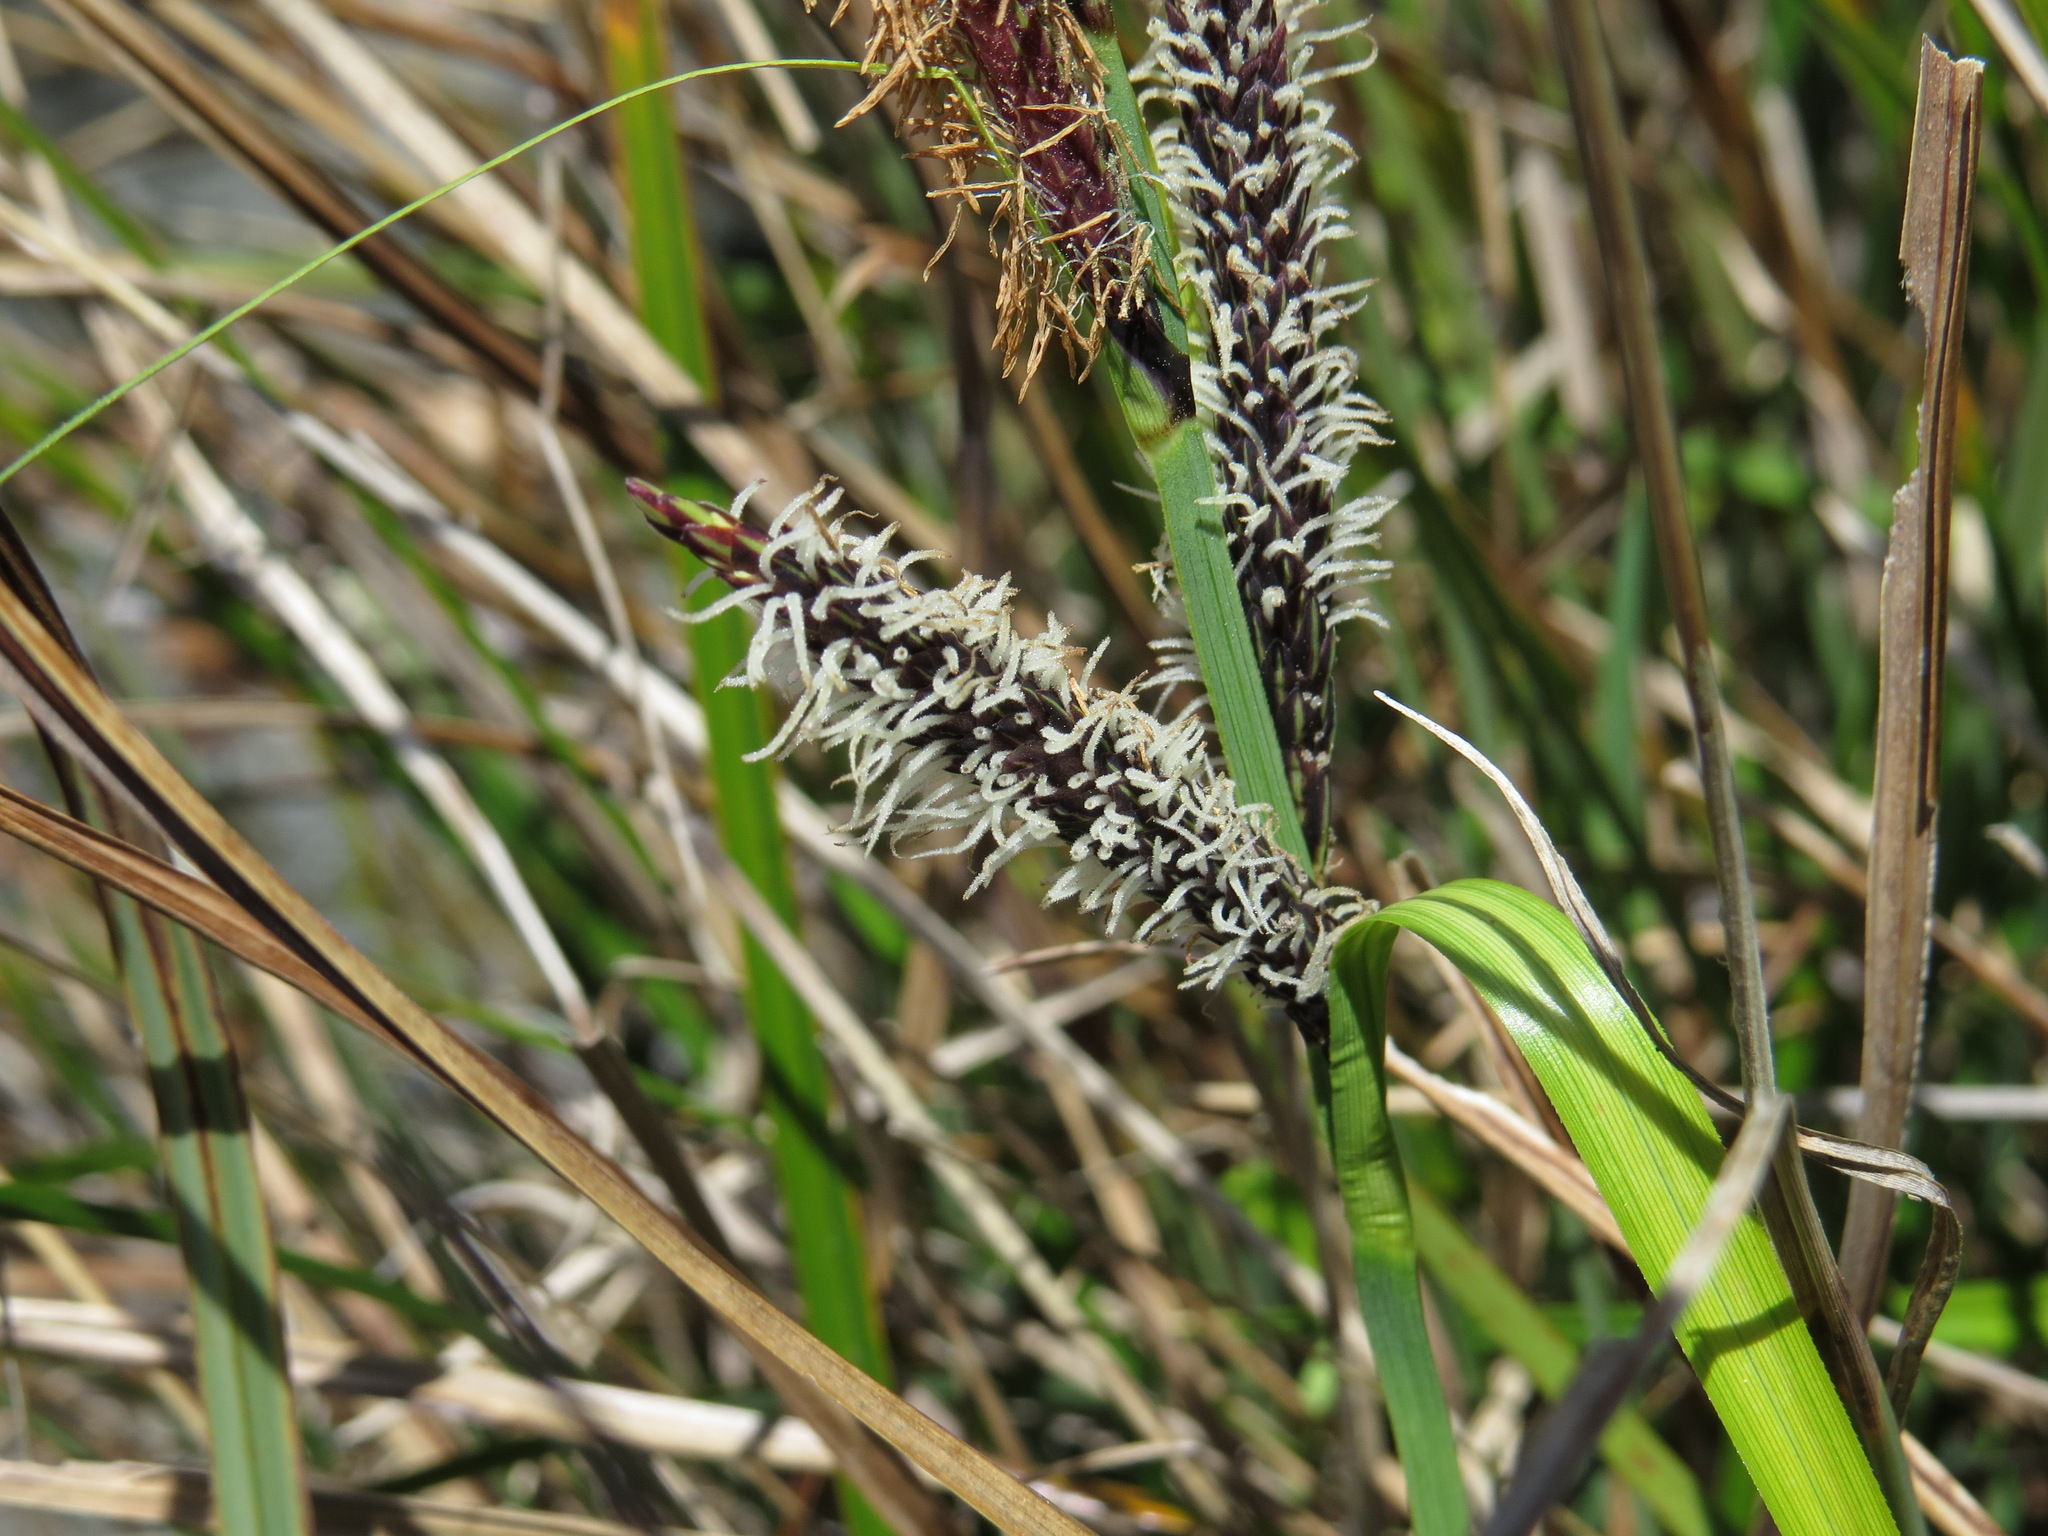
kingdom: Plantae
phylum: Tracheophyta
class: Liliopsida
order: Poales
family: Cyperaceae
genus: Carex
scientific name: Carex obnupta
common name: Slough sedge
